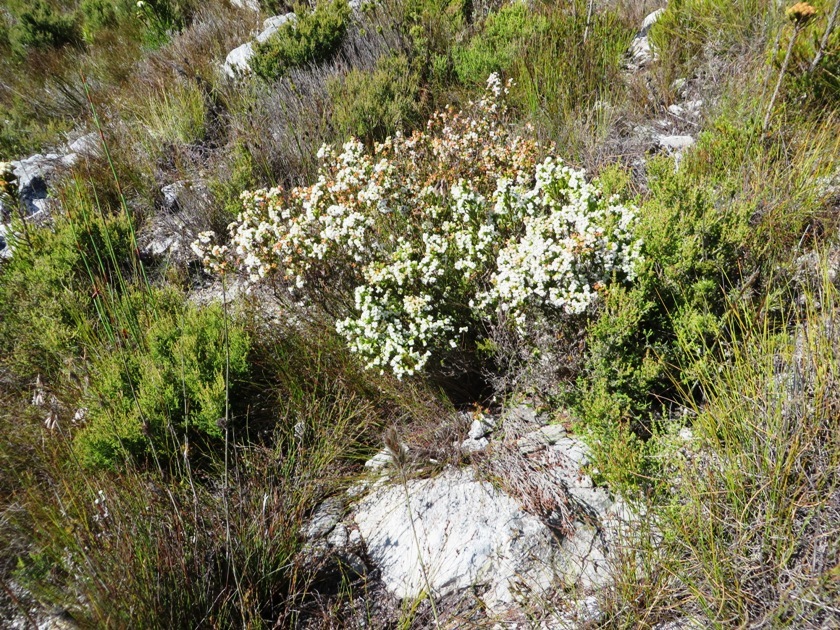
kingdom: Plantae
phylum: Tracheophyta
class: Magnoliopsida
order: Ericales
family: Ericaceae
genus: Erica
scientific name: Erica denticulata
